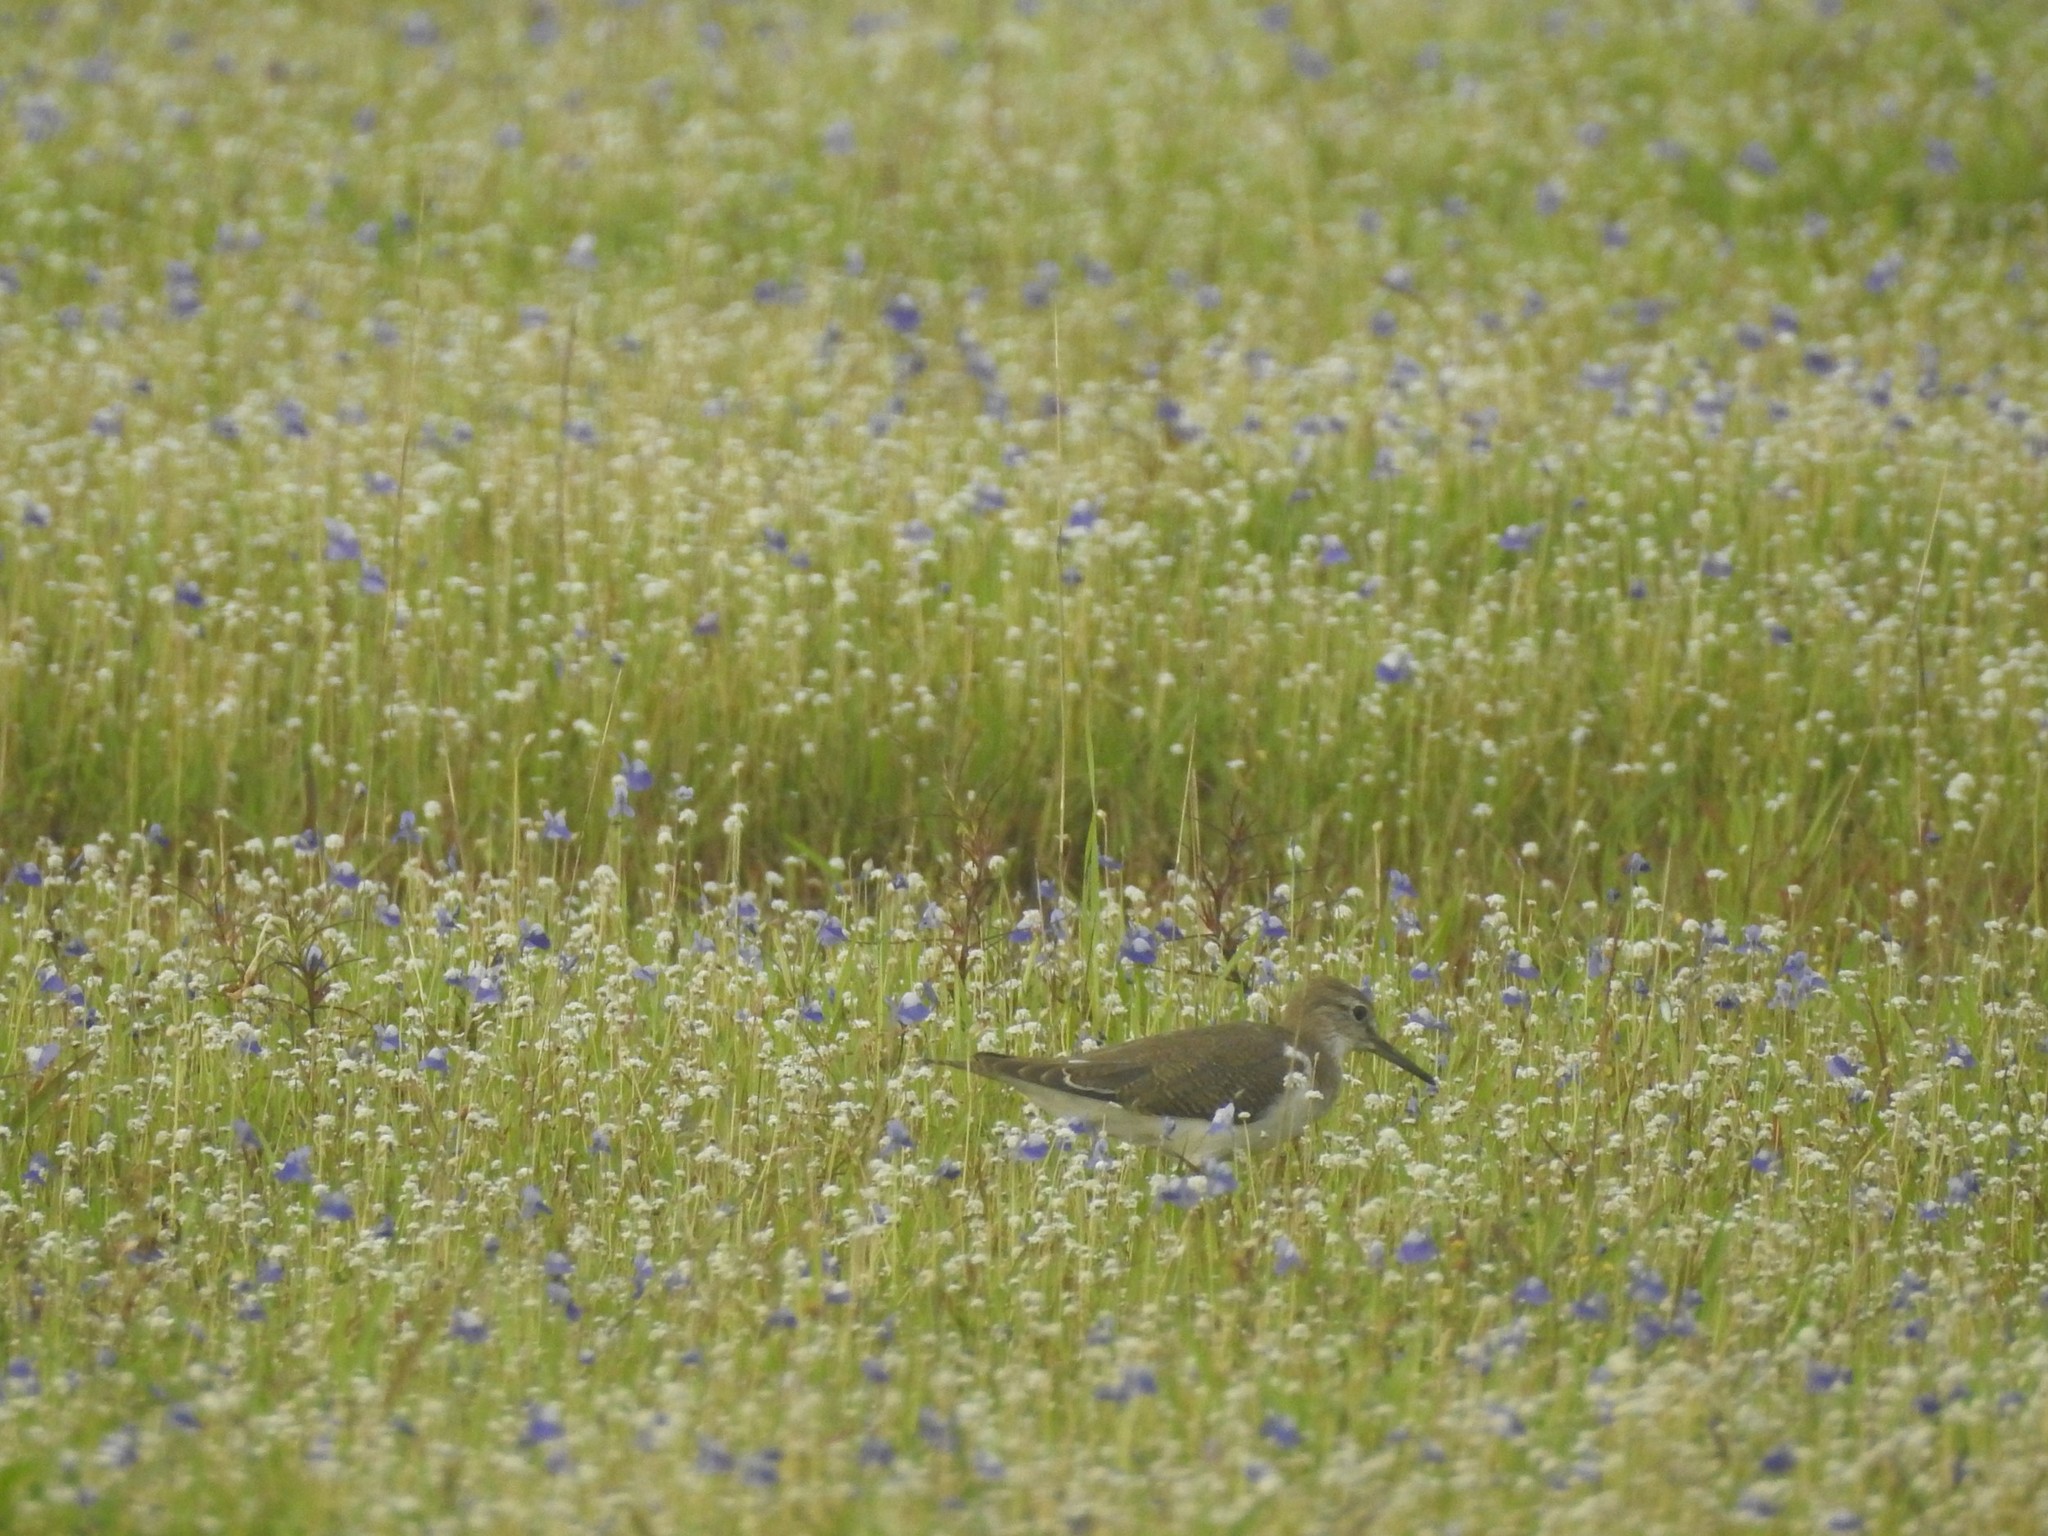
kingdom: Animalia
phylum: Chordata
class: Aves
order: Charadriiformes
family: Scolopacidae
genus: Actitis
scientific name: Actitis hypoleucos
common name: Common sandpiper
